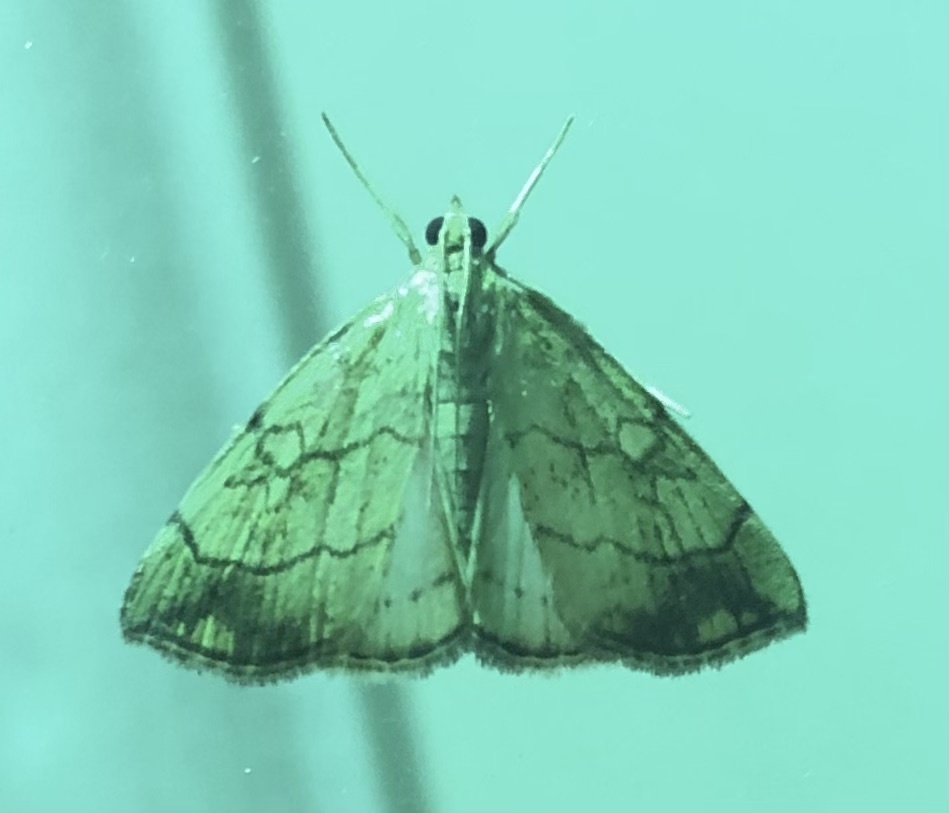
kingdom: Animalia
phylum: Arthropoda
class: Insecta
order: Lepidoptera
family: Crambidae
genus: Evergestis
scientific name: Evergestis pallidata
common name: Chequered pearl
